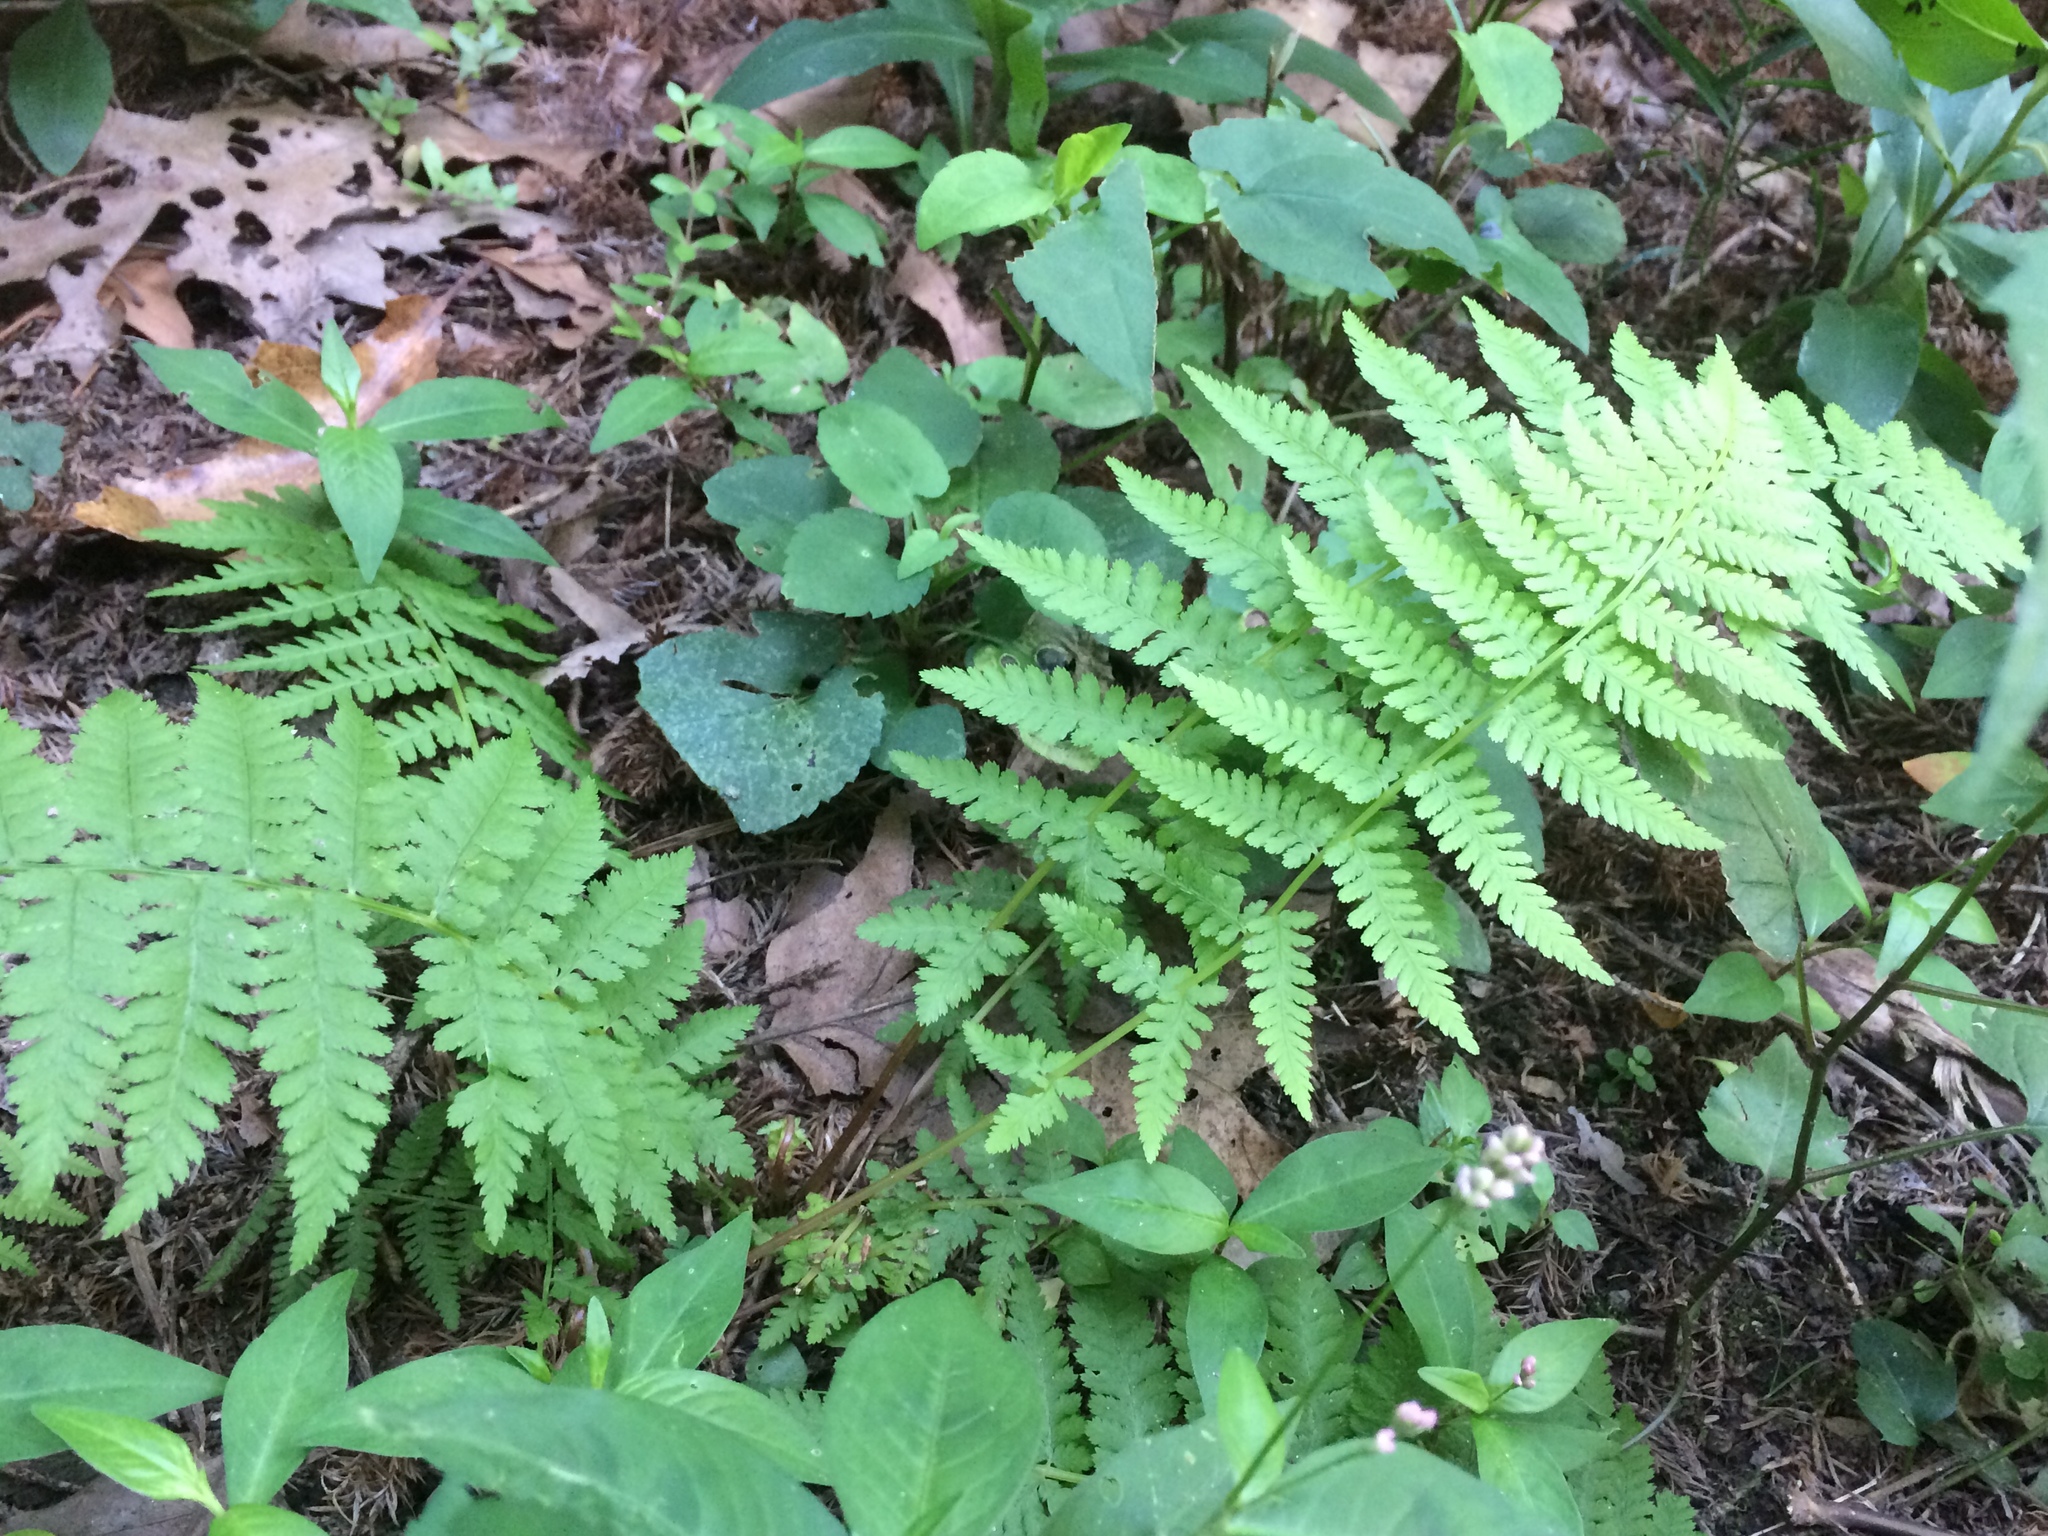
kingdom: Plantae
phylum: Tracheophyta
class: Polypodiopsida
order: Polypodiales
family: Athyriaceae
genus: Athyrium
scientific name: Athyrium angustum
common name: Northern lady fern
